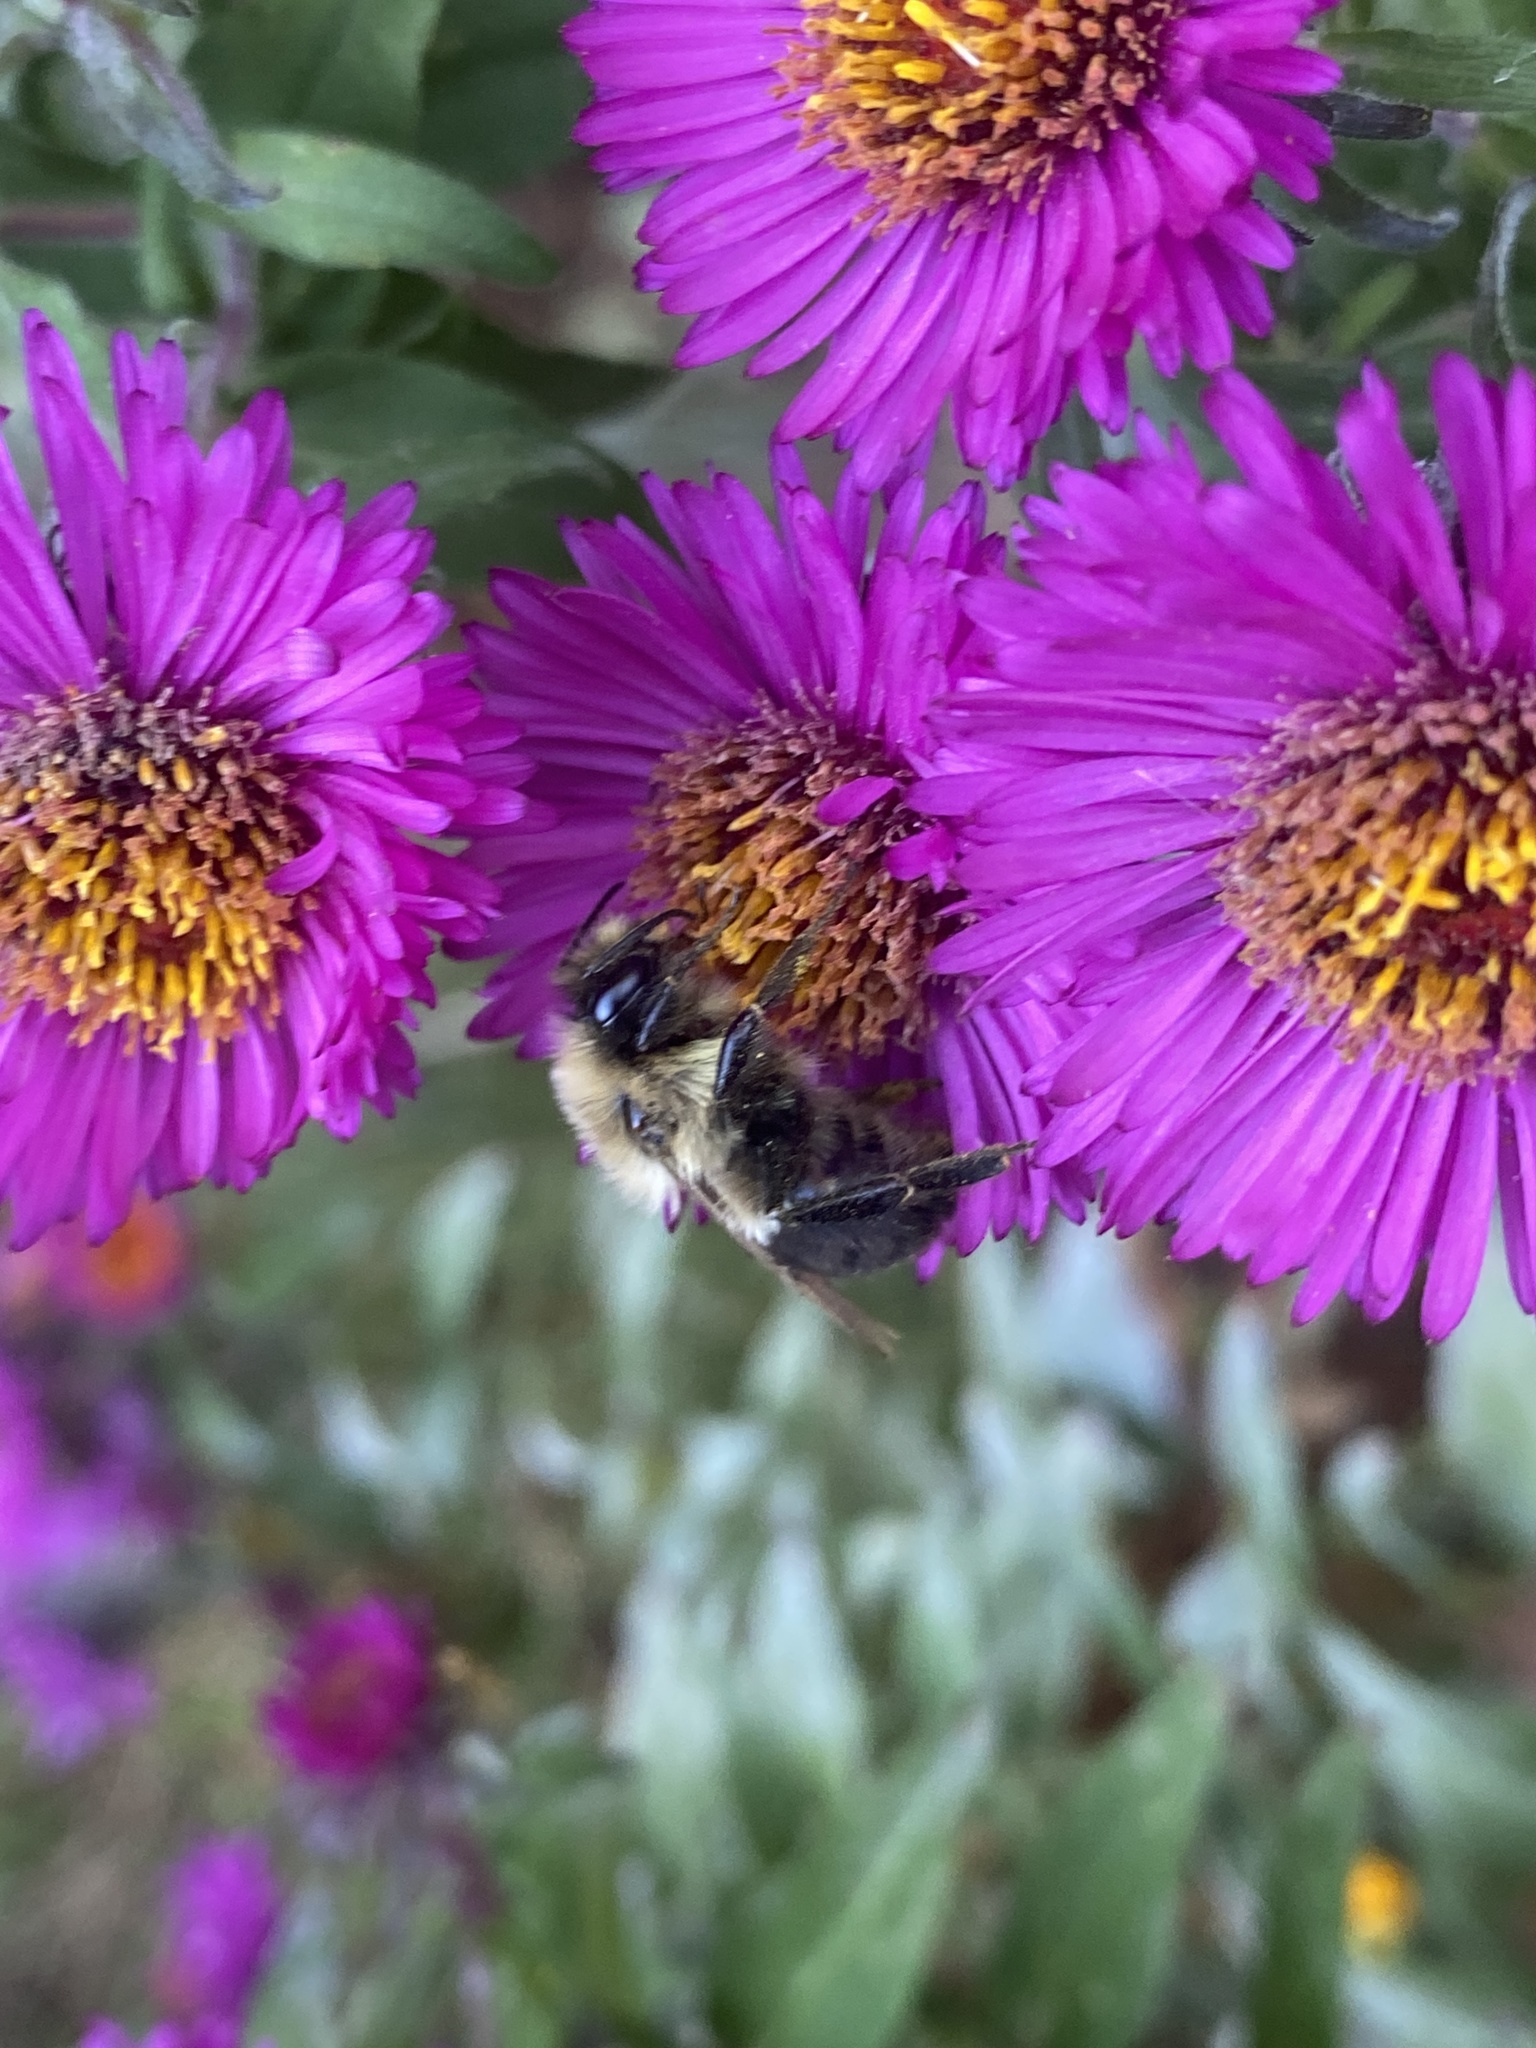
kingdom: Animalia
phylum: Arthropoda
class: Insecta
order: Hymenoptera
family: Apidae
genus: Bombus
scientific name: Bombus impatiens
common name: Common eastern bumble bee
